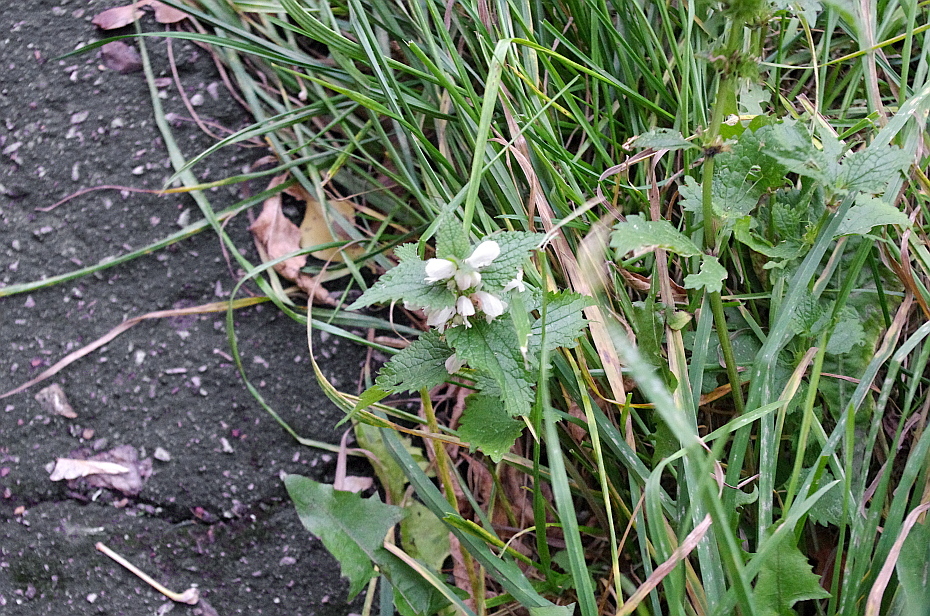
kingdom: Plantae
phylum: Tracheophyta
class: Magnoliopsida
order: Lamiales
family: Lamiaceae
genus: Lamium
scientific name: Lamium album
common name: White dead-nettle
